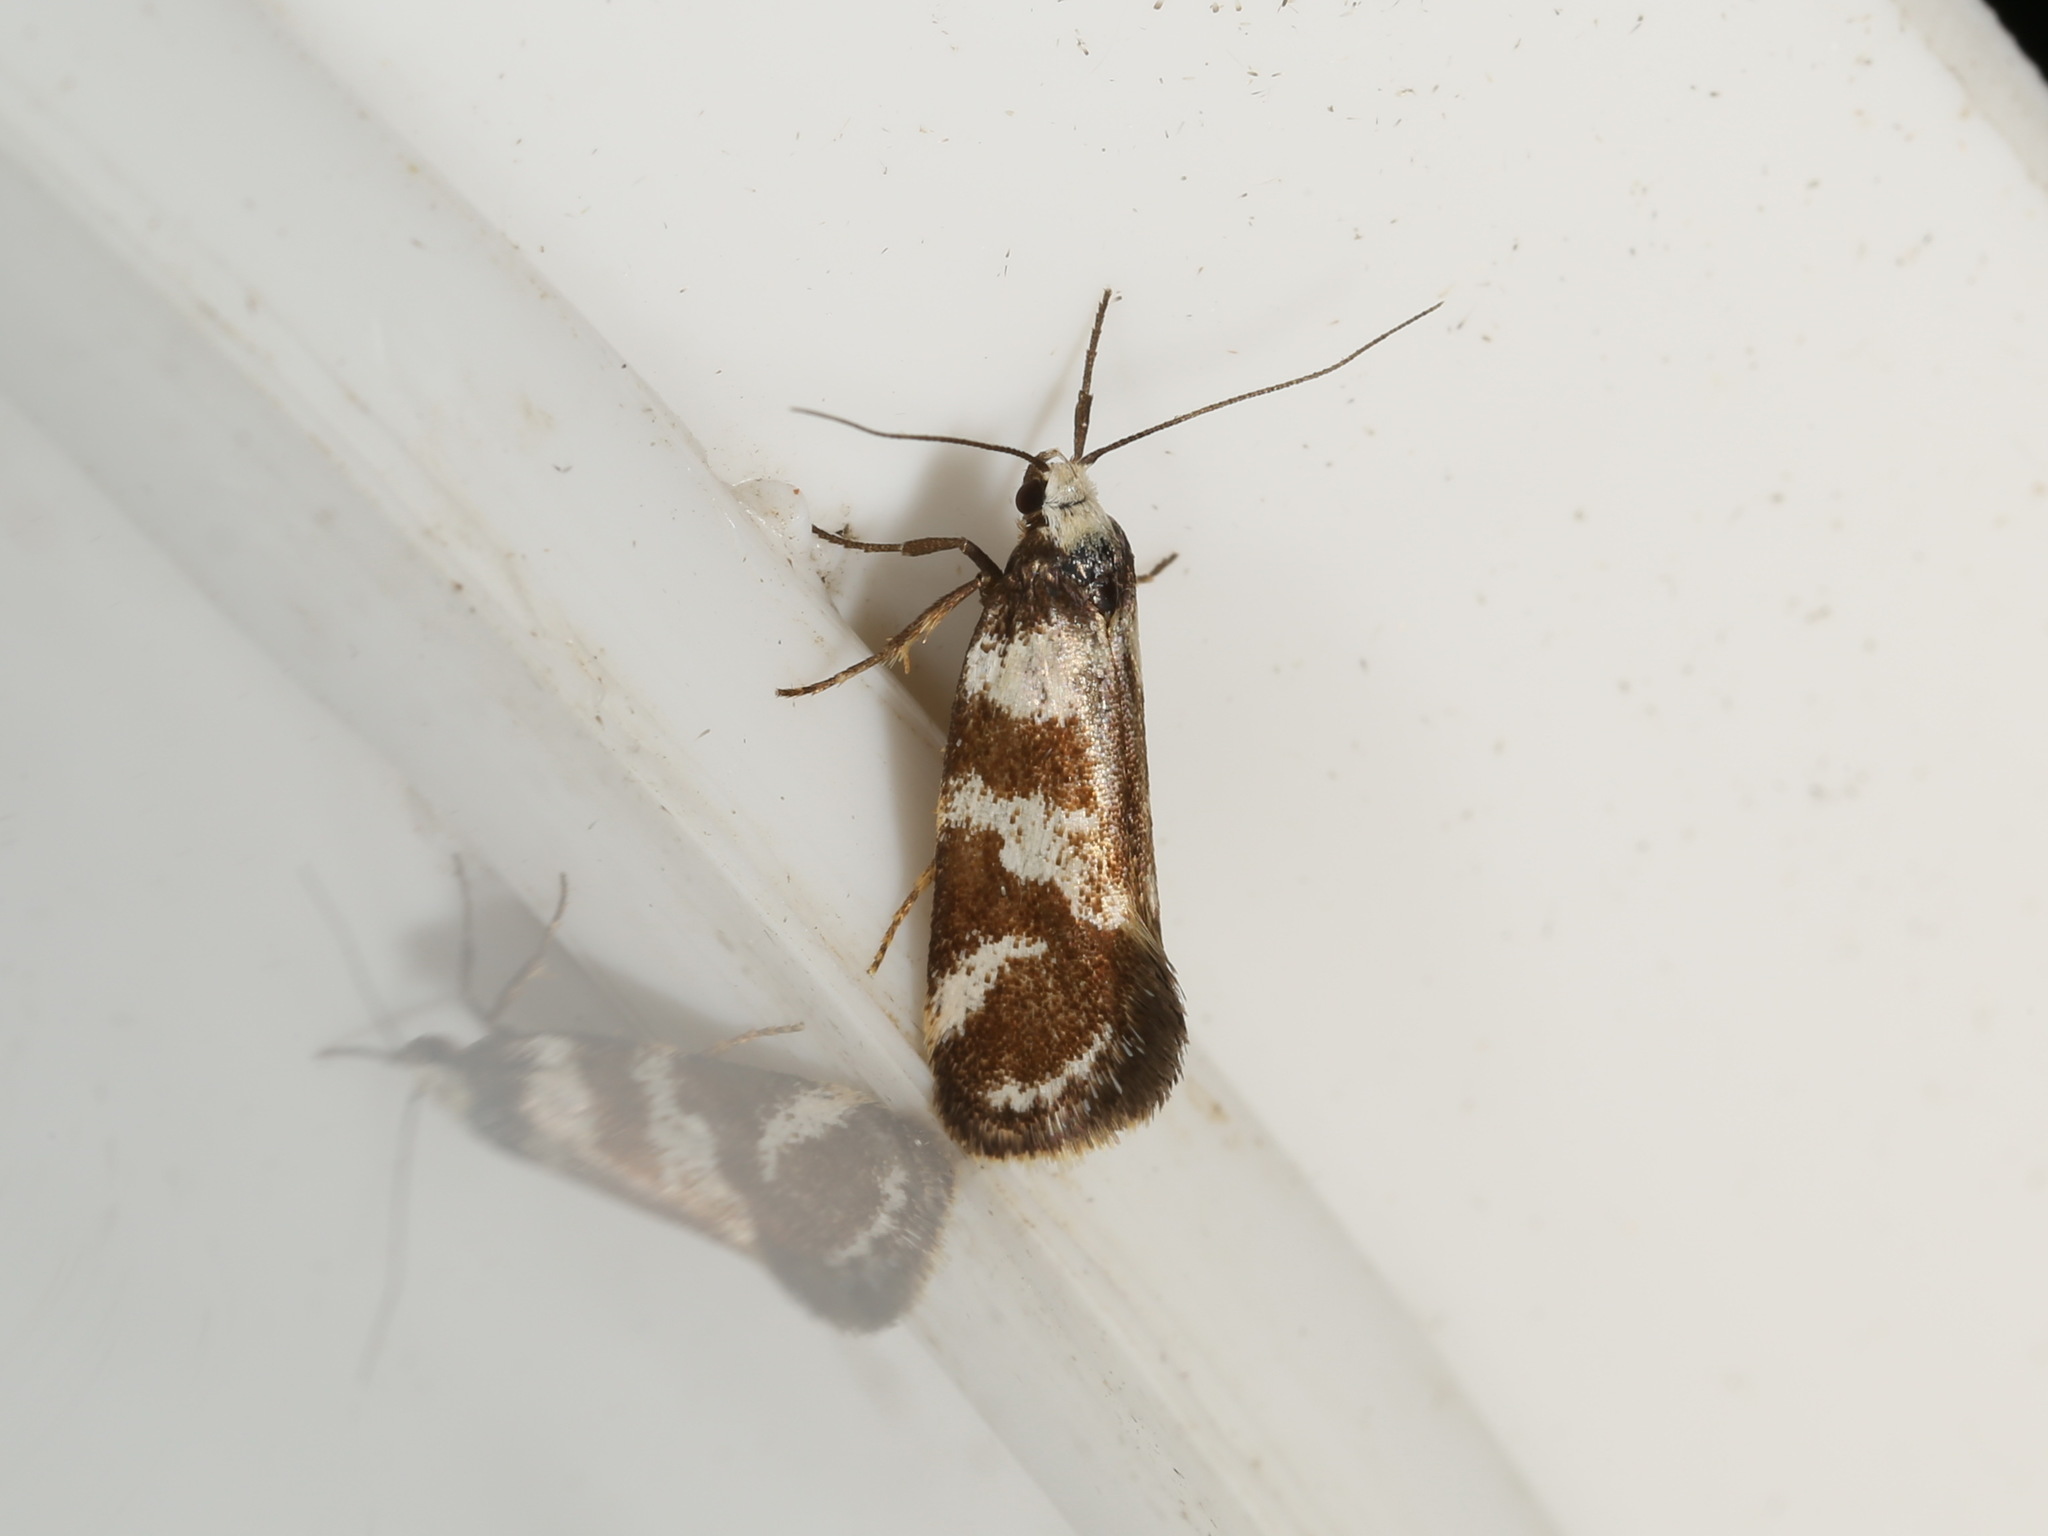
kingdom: Animalia
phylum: Arthropoda
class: Insecta
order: Lepidoptera
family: Oecophoridae
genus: Isomoralla
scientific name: Isomoralla eriscota
